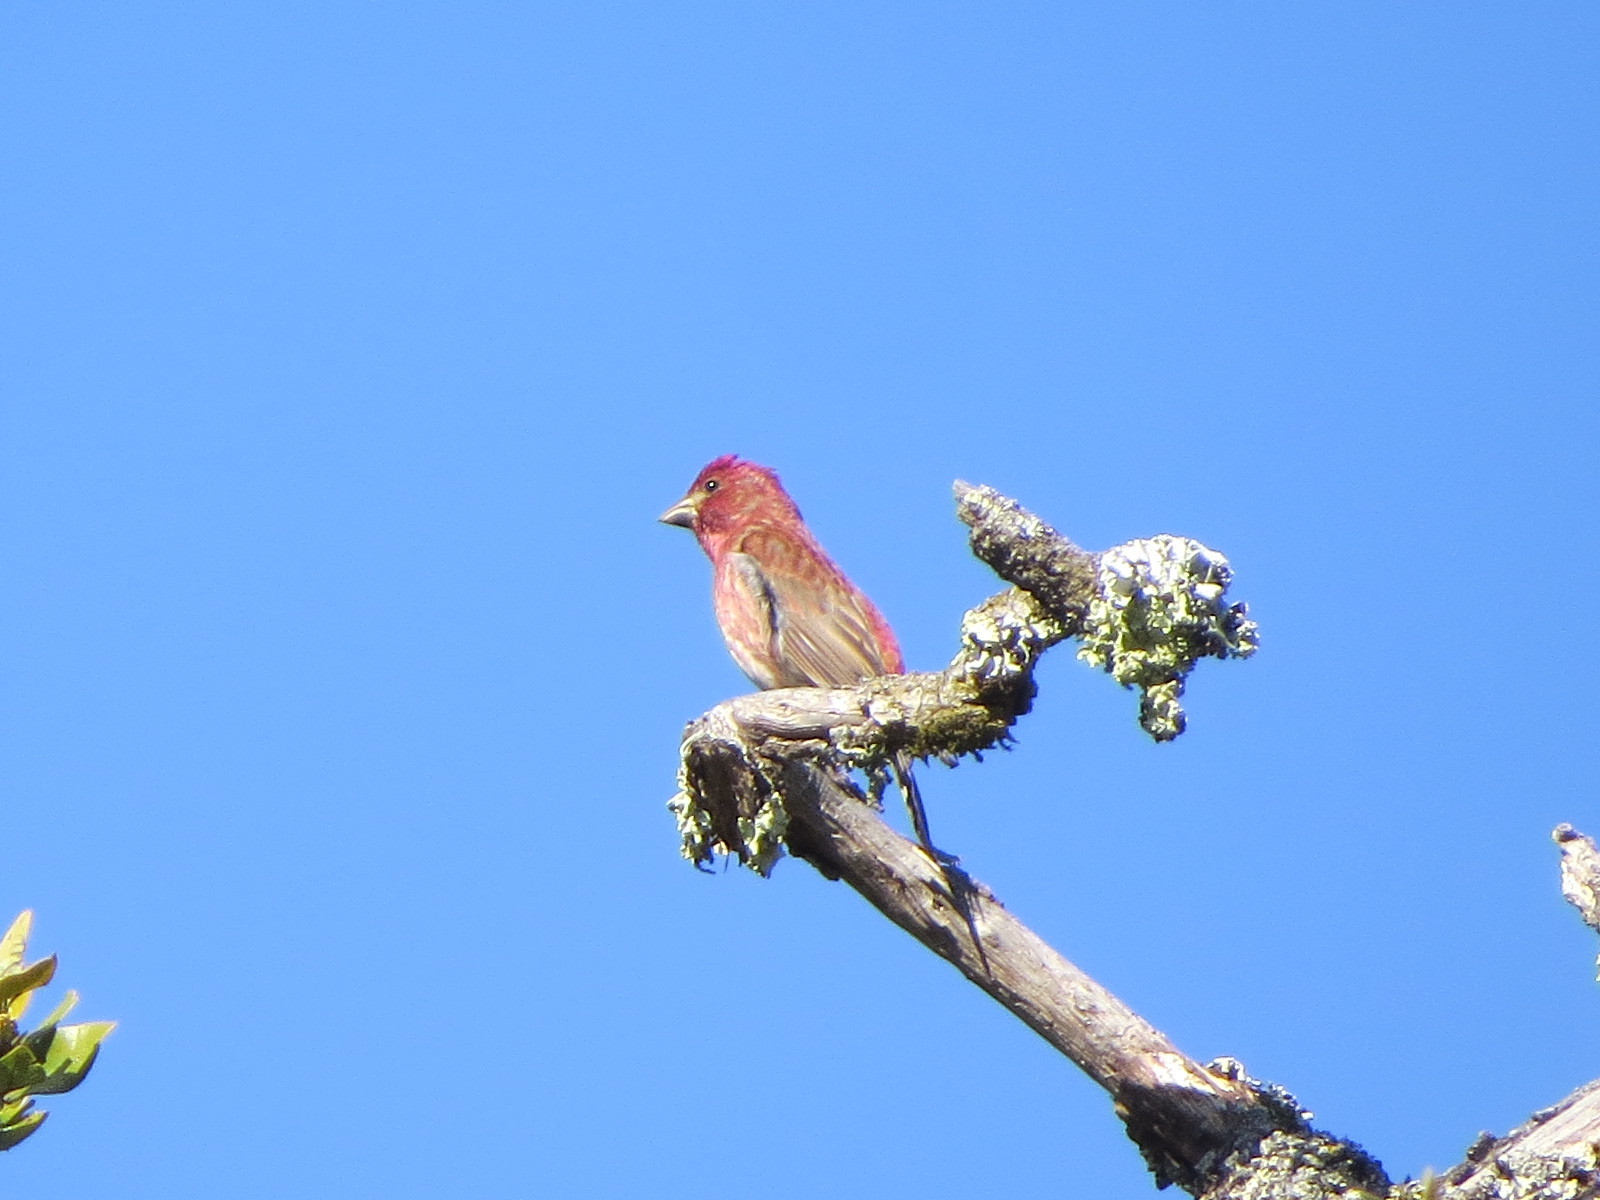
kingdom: Animalia
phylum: Chordata
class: Aves
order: Passeriformes
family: Fringillidae
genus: Haemorhous
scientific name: Haemorhous purpureus
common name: Purple finch
